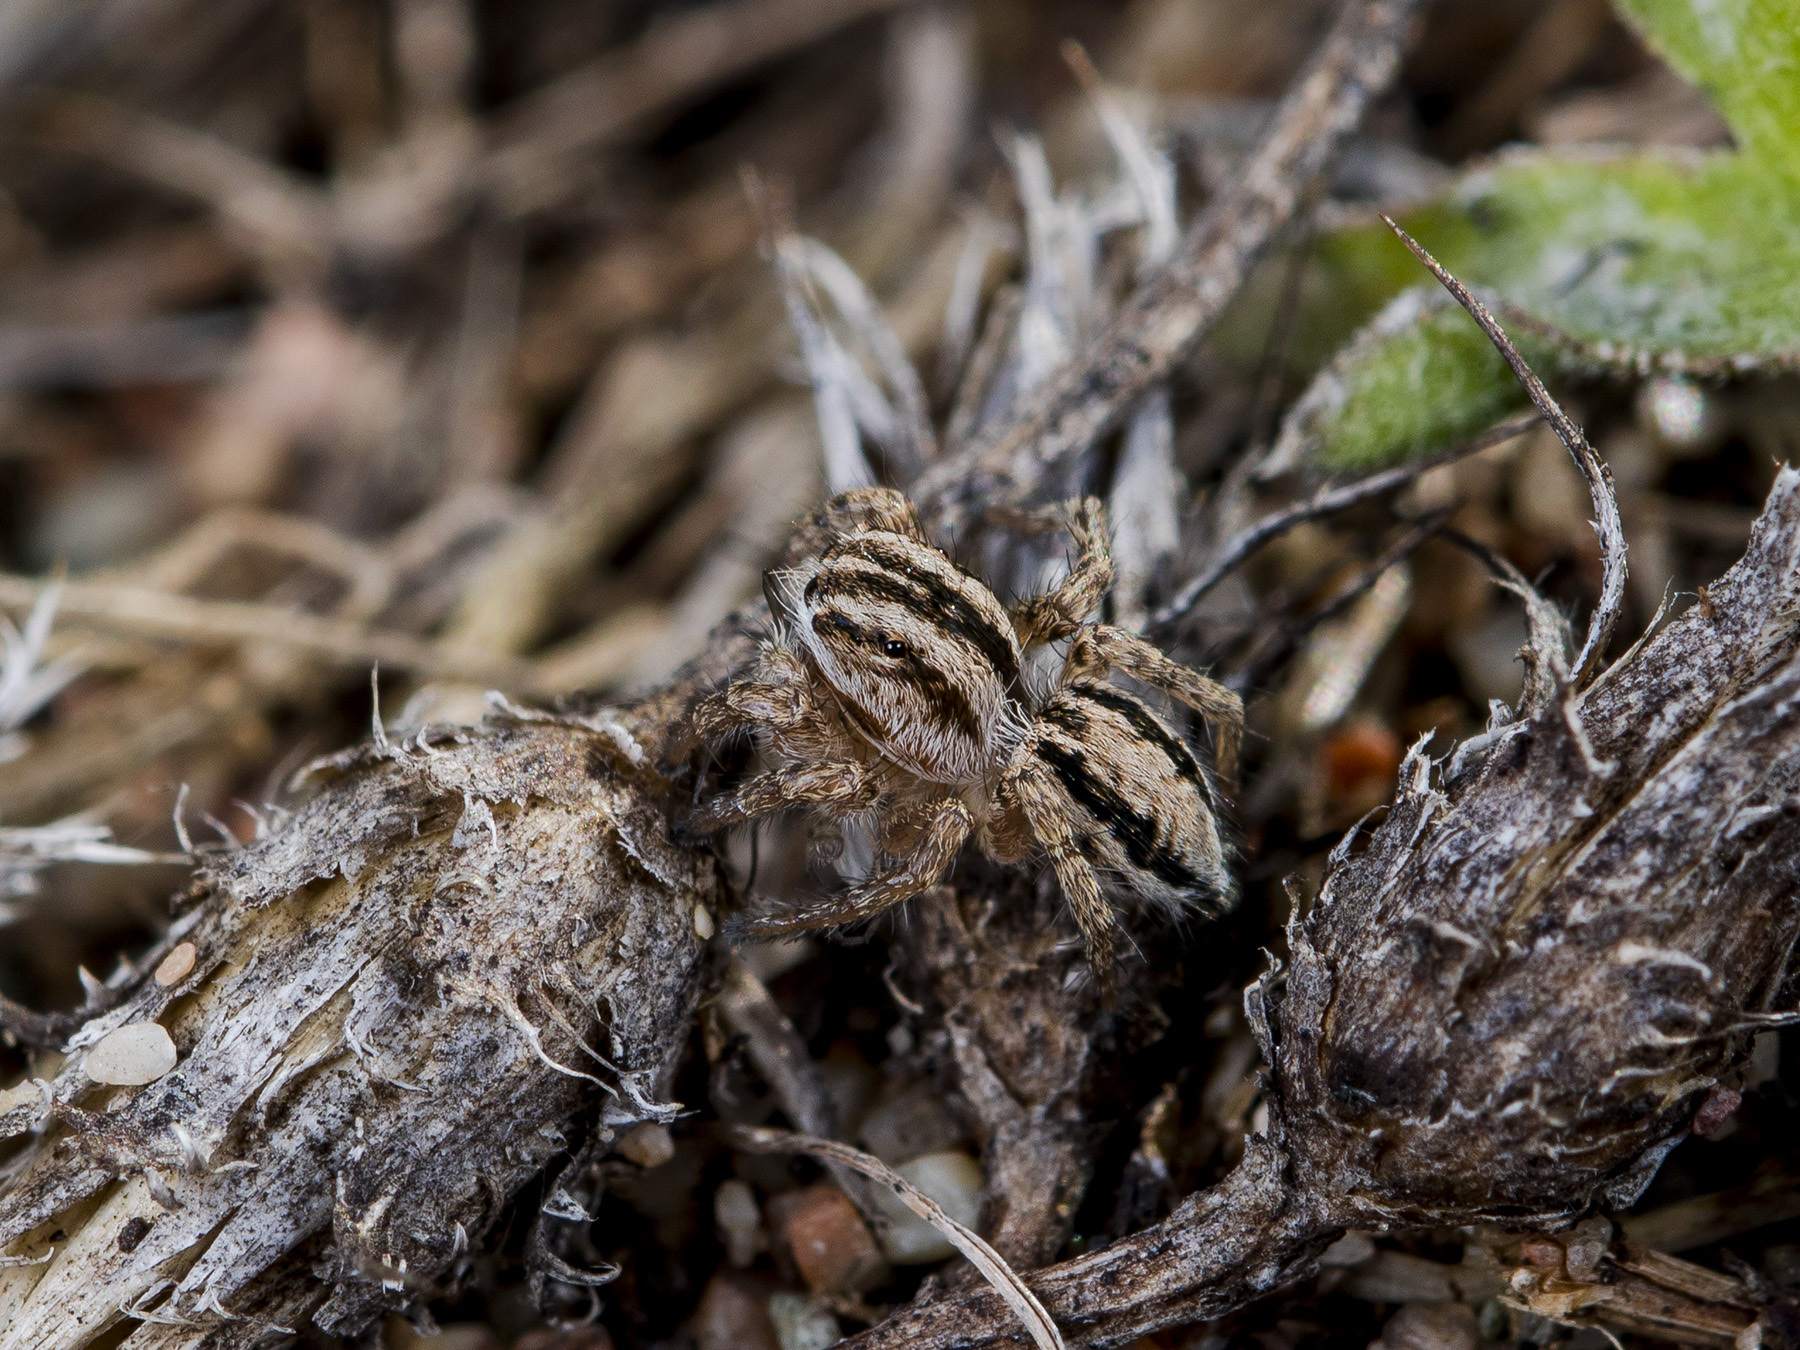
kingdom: Animalia
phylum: Arthropoda
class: Arachnida
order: Araneae
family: Salticidae
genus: Aelurillus
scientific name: Aelurillus m-nigrum
